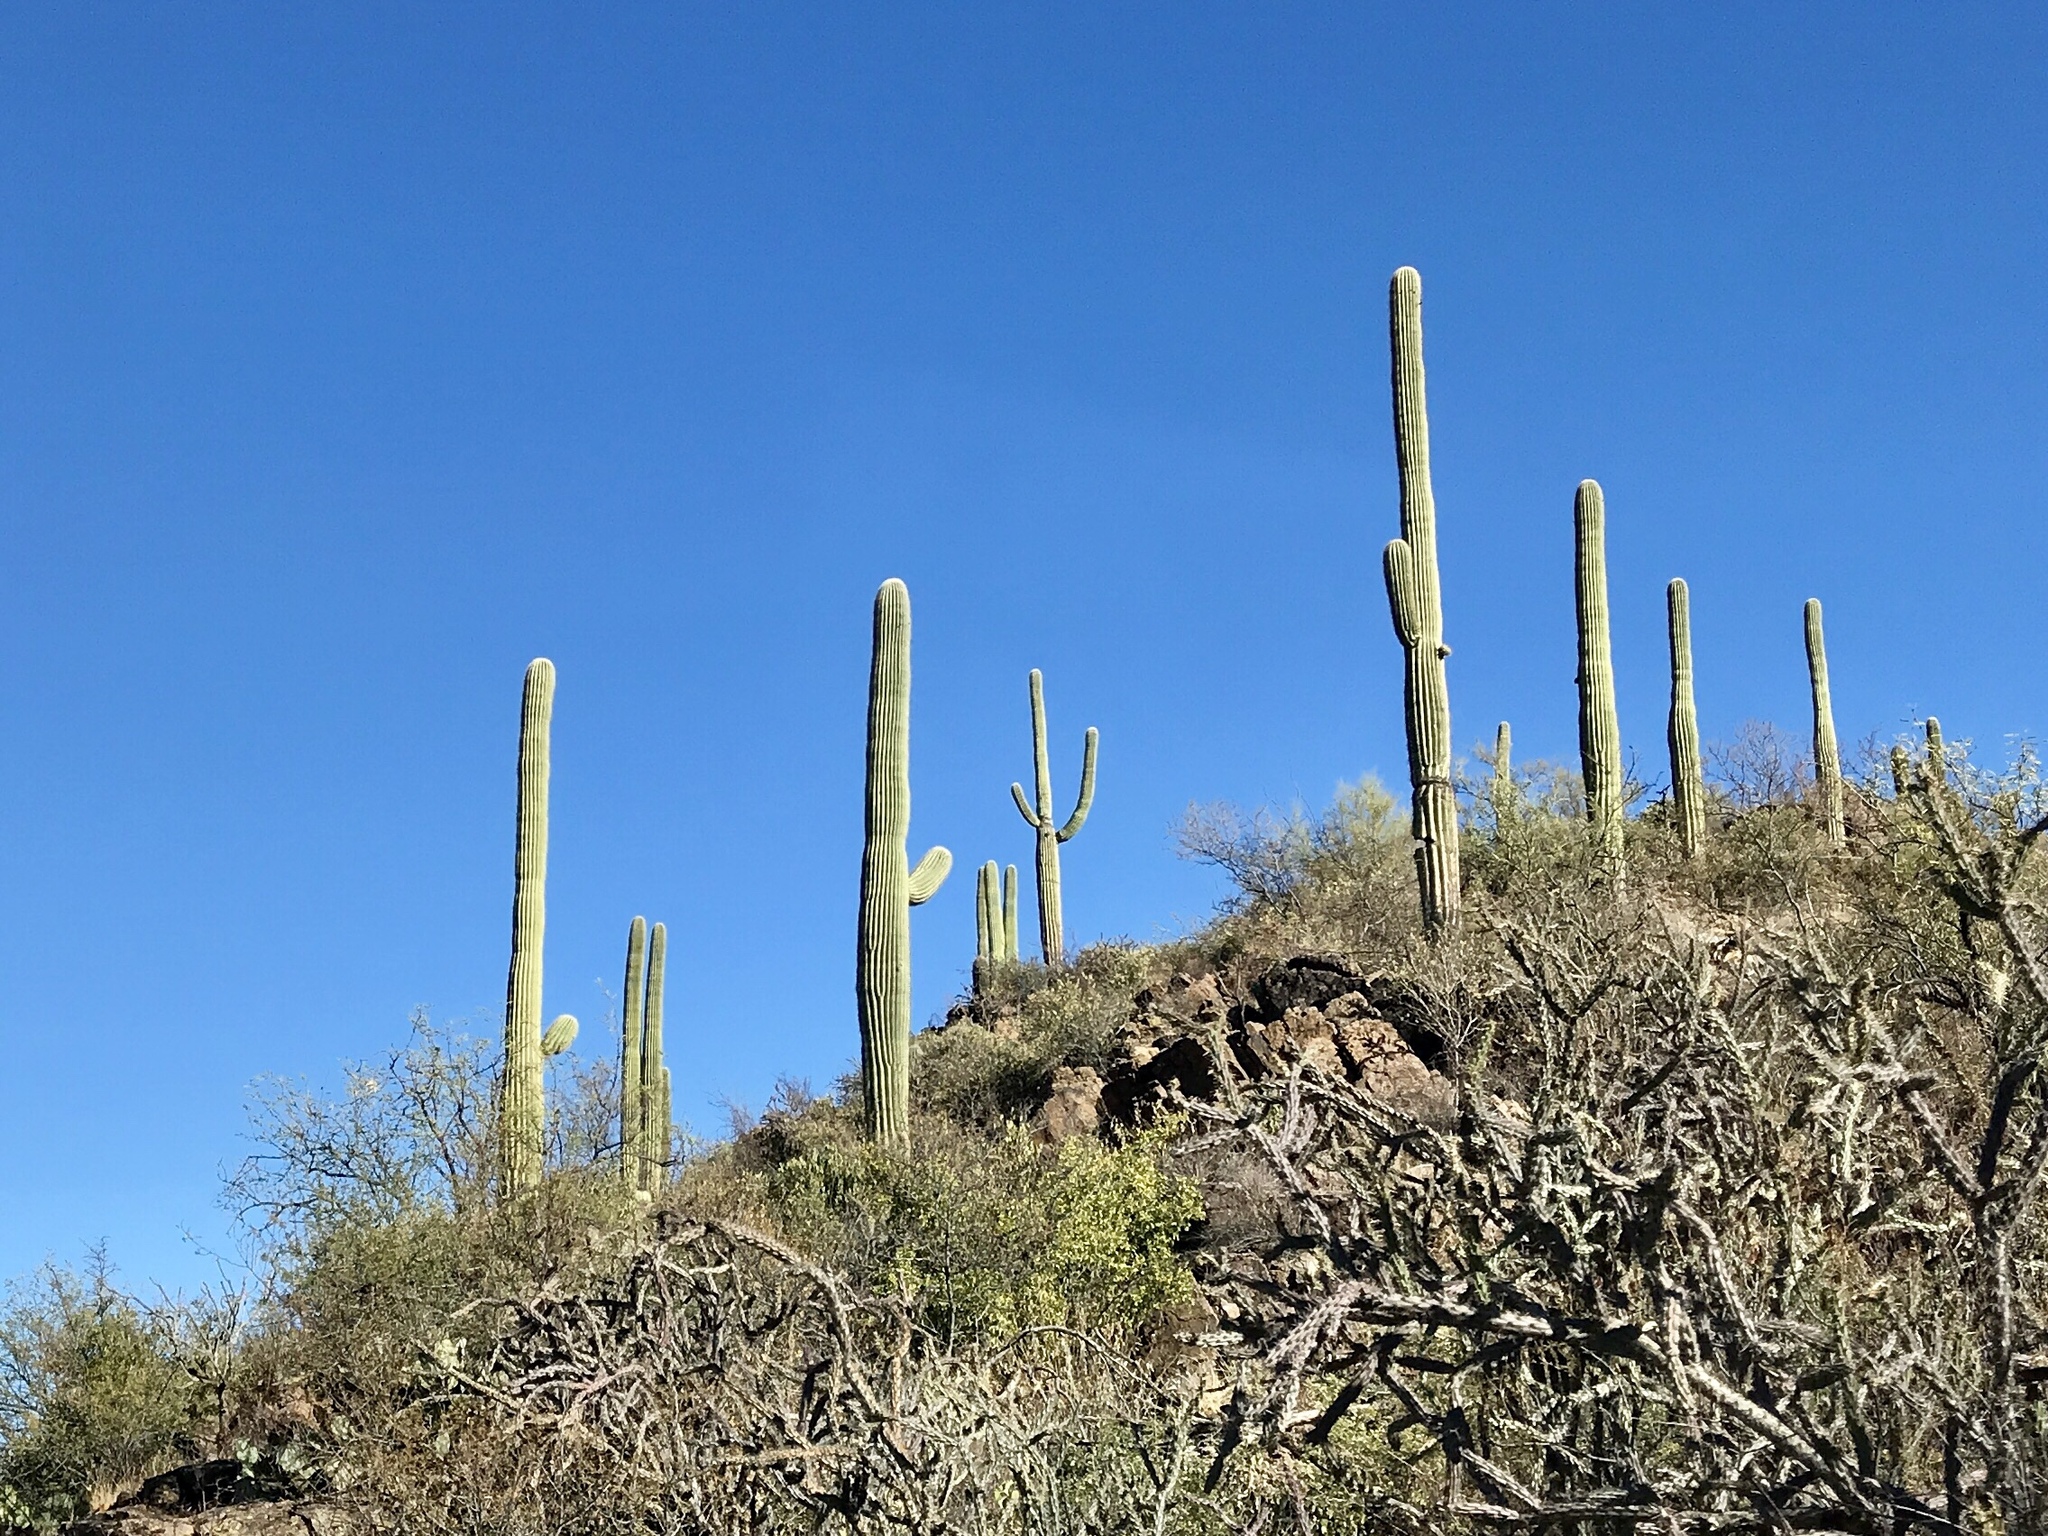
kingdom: Plantae
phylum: Tracheophyta
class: Magnoliopsida
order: Caryophyllales
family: Cactaceae
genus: Carnegiea
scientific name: Carnegiea gigantea
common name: Saguaro
